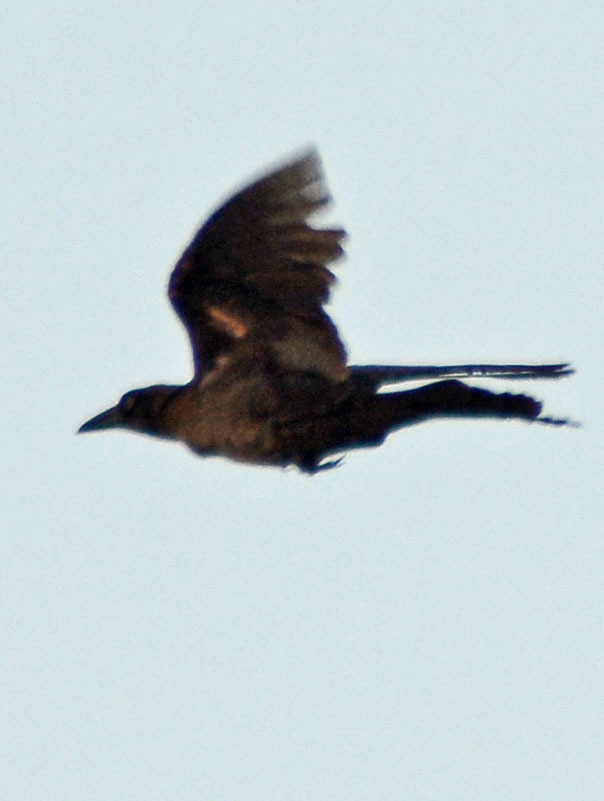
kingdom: Animalia
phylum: Chordata
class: Aves
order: Passeriformes
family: Icteridae
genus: Quiscalus
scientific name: Quiscalus mexicanus
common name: Great-tailed grackle
